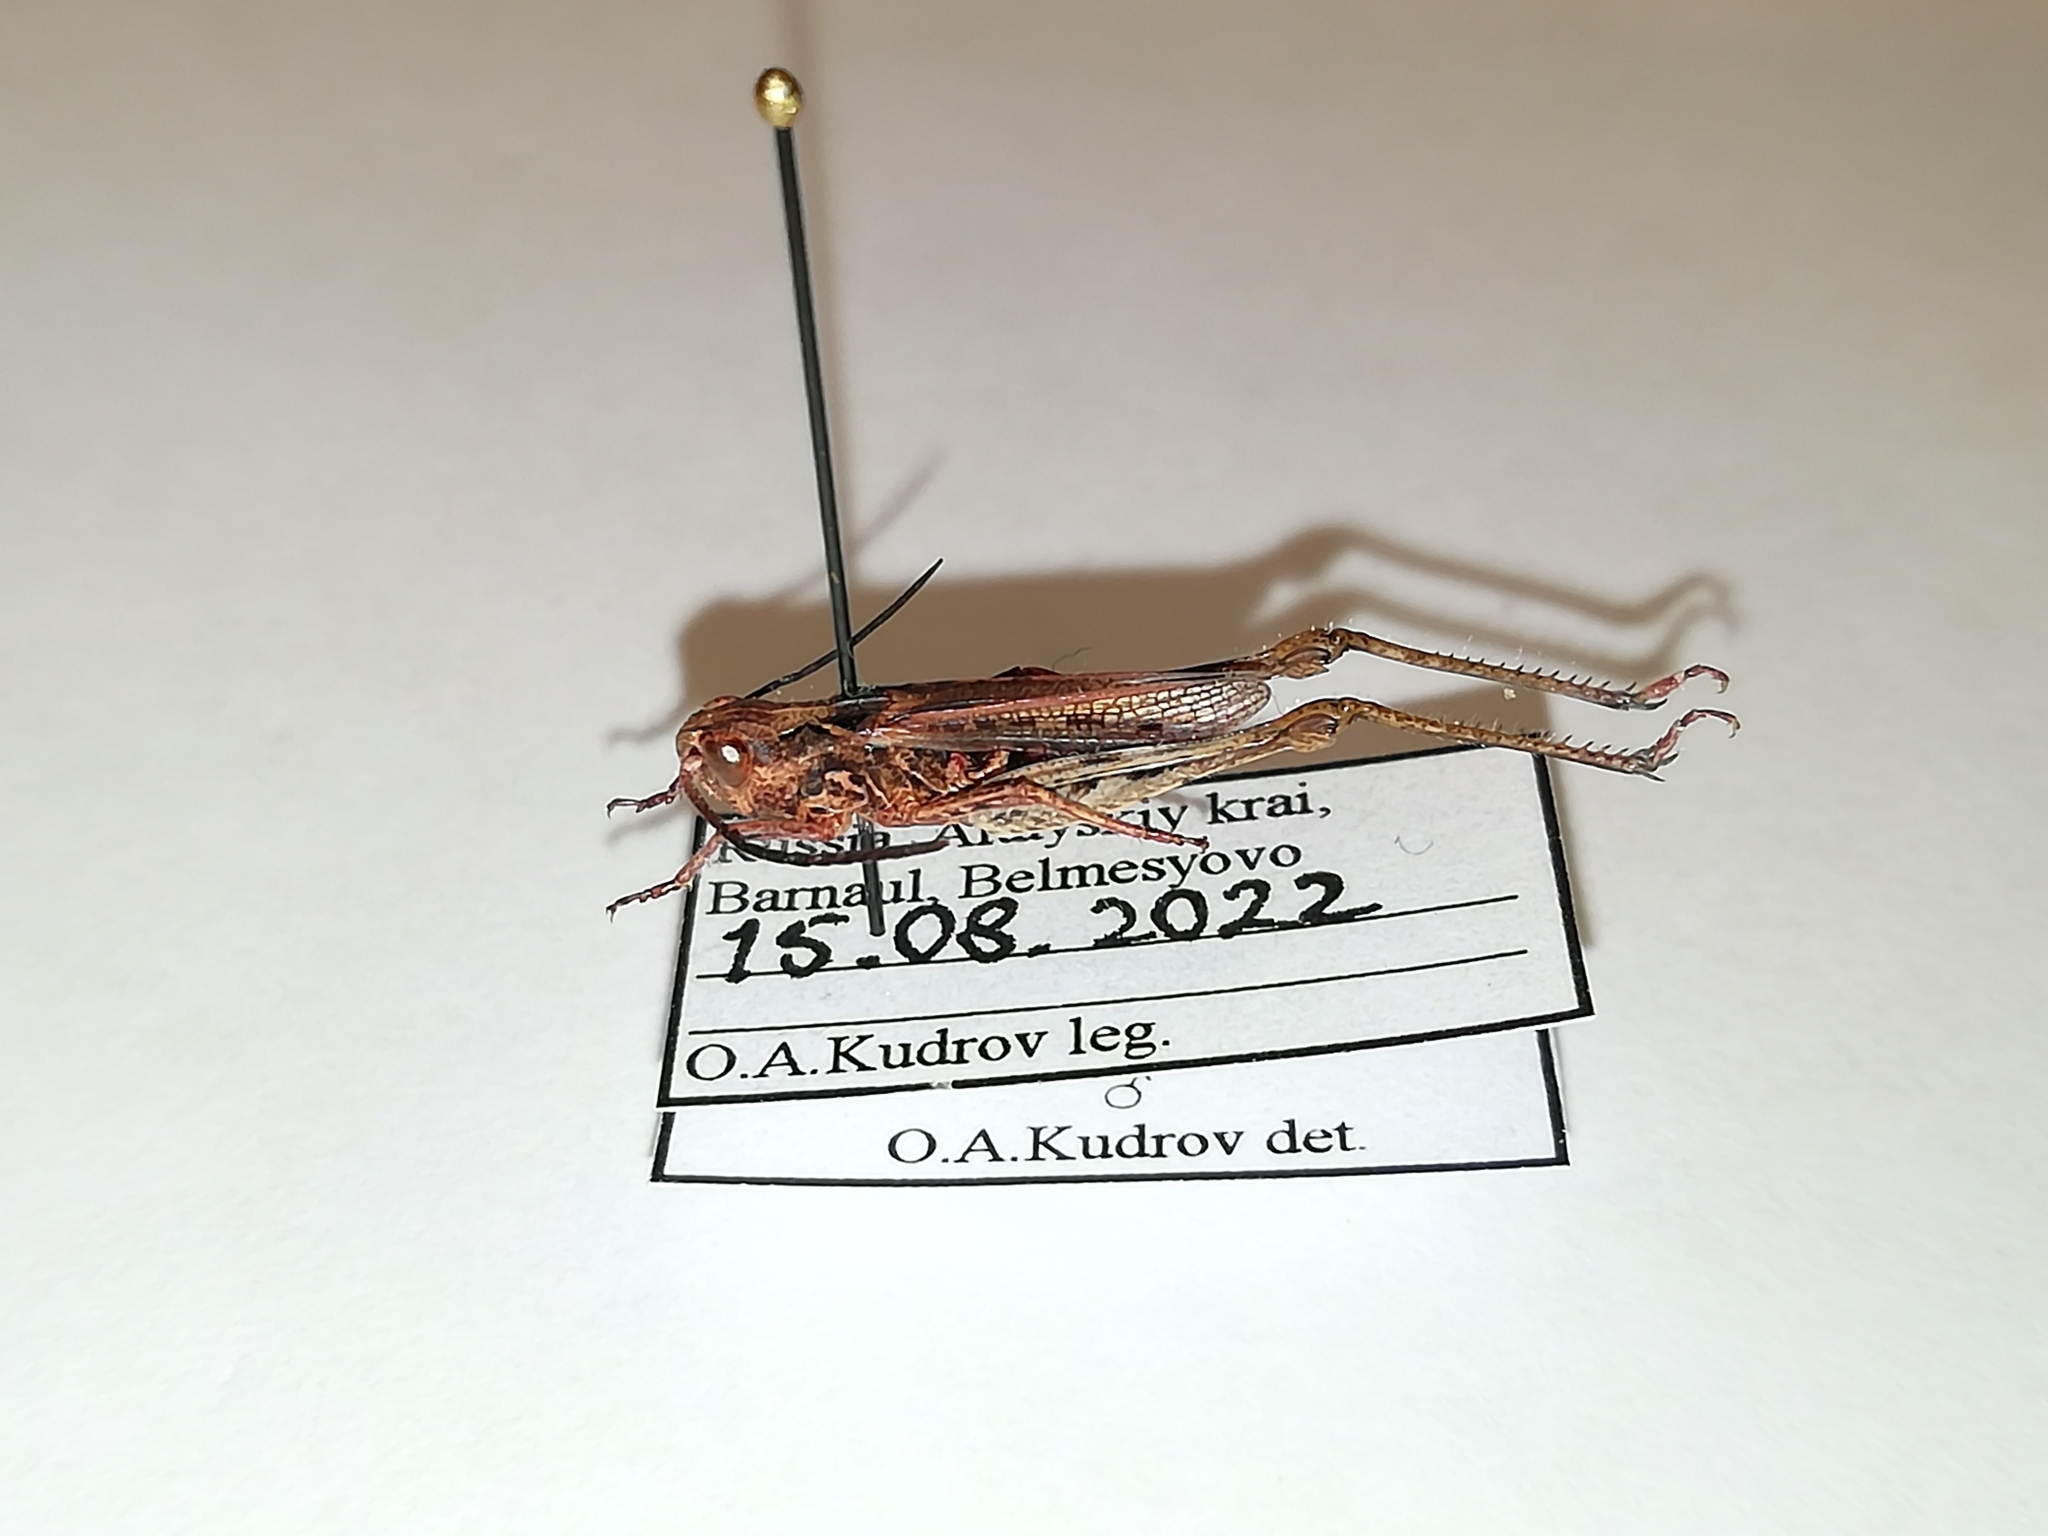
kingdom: Animalia
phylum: Arthropoda
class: Insecta
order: Orthoptera
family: Acrididae
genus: Chorthippus
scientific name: Chorthippus dubius
